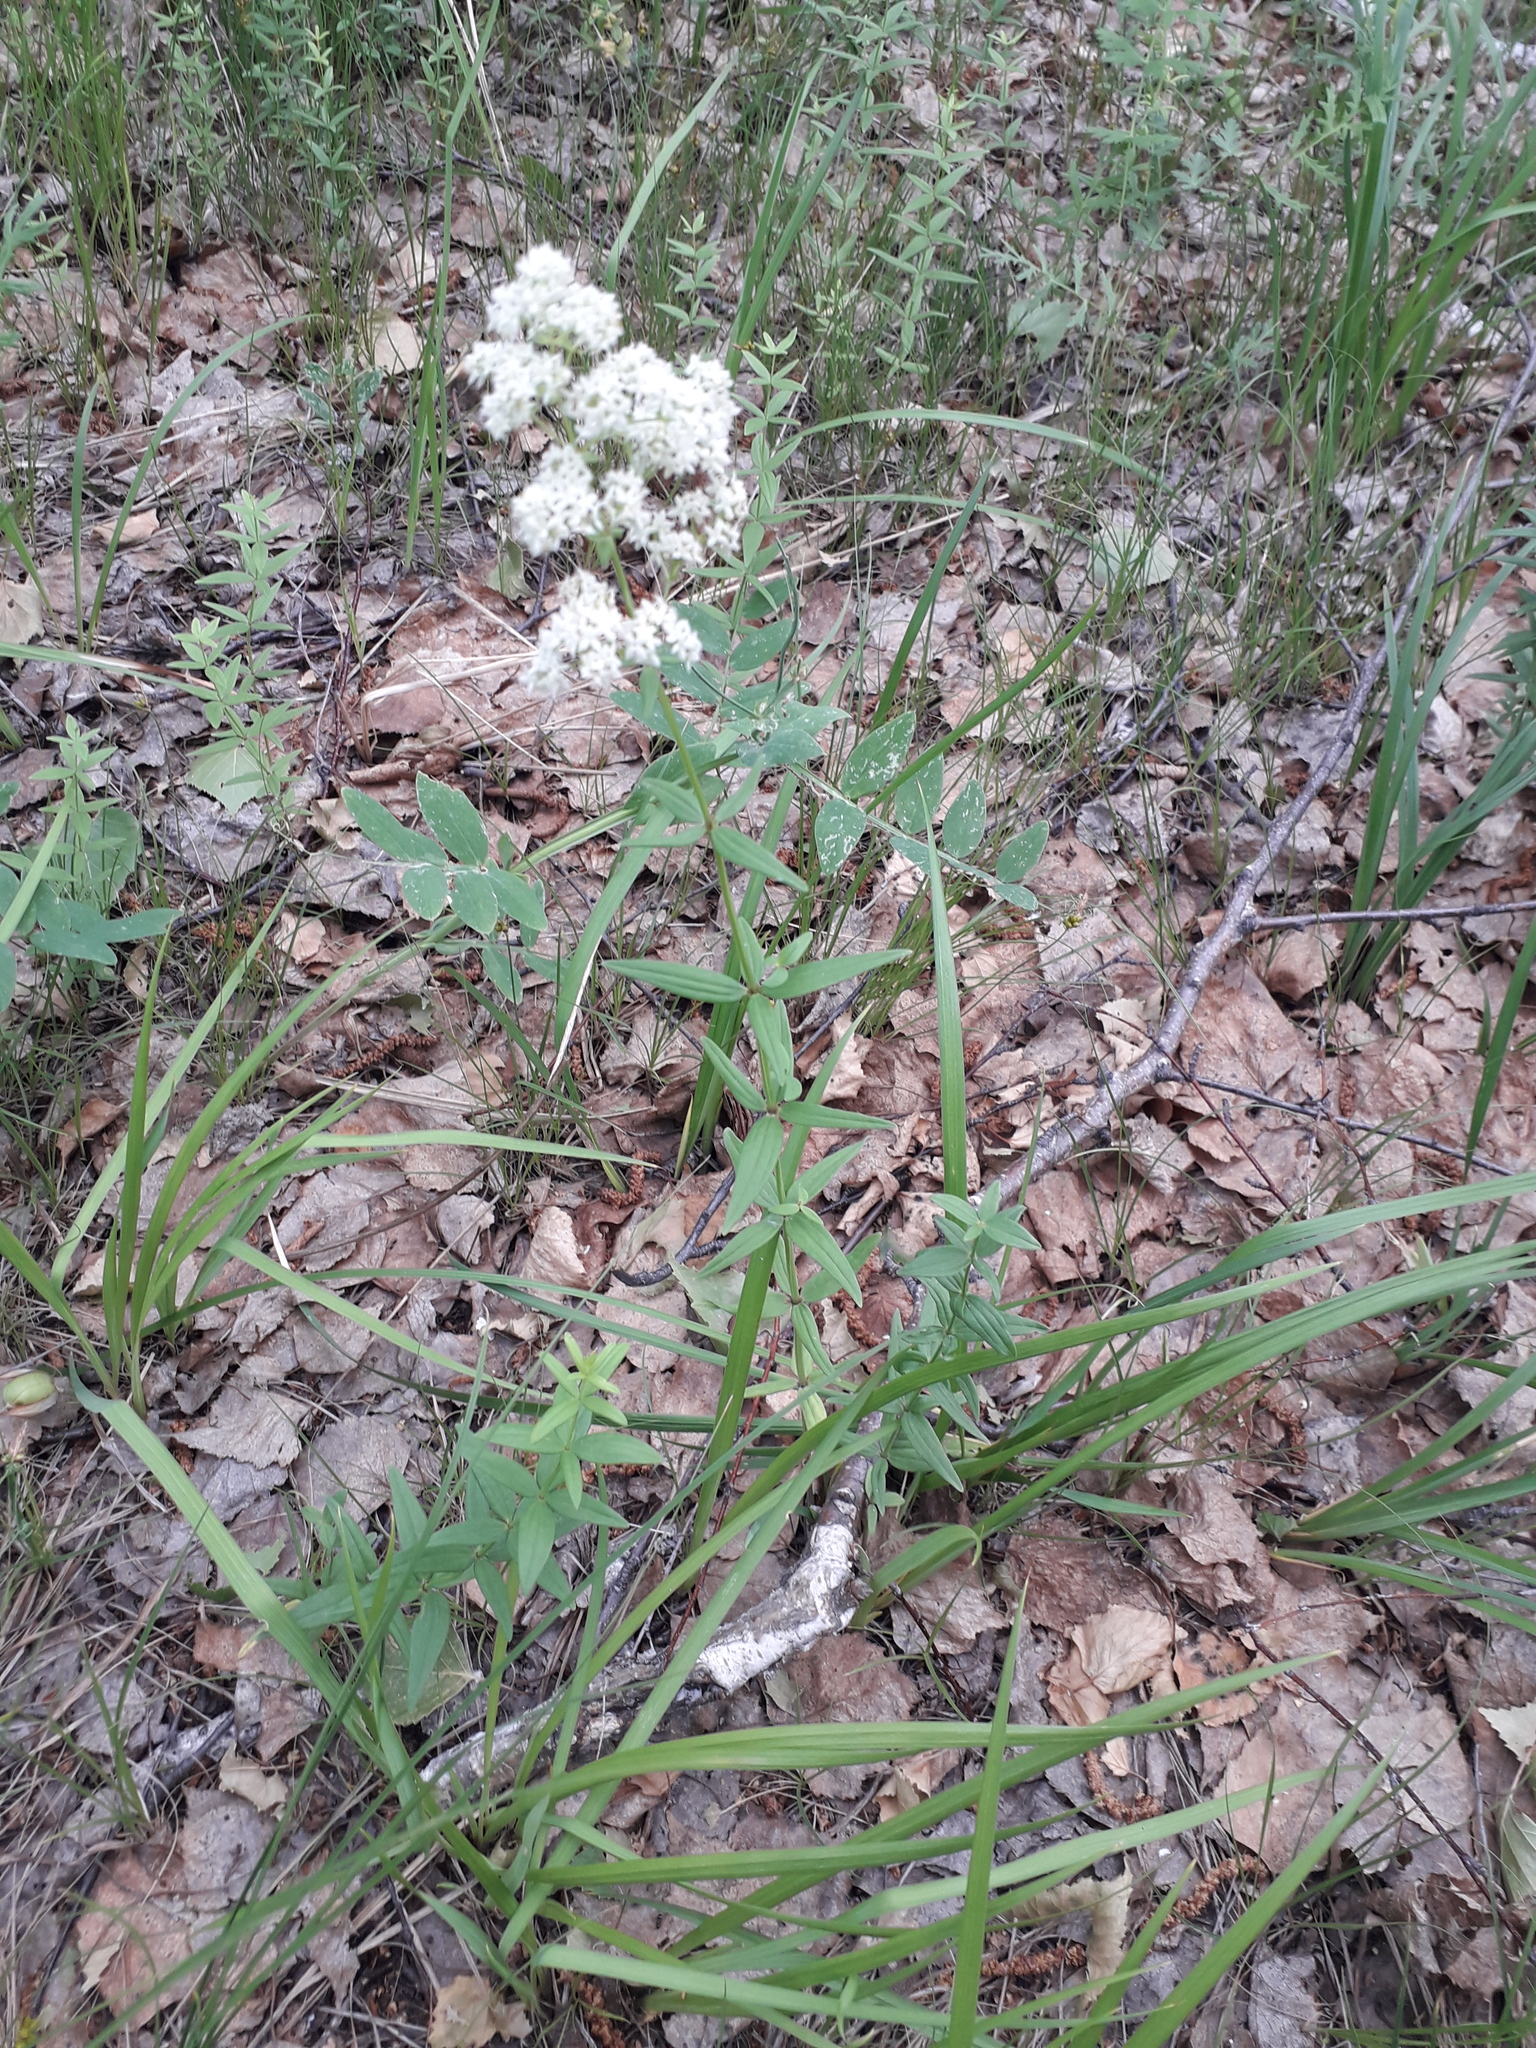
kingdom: Plantae
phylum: Tracheophyta
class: Magnoliopsida
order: Gentianales
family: Rubiaceae
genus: Galium
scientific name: Galium boreale
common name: Northern bedstraw
